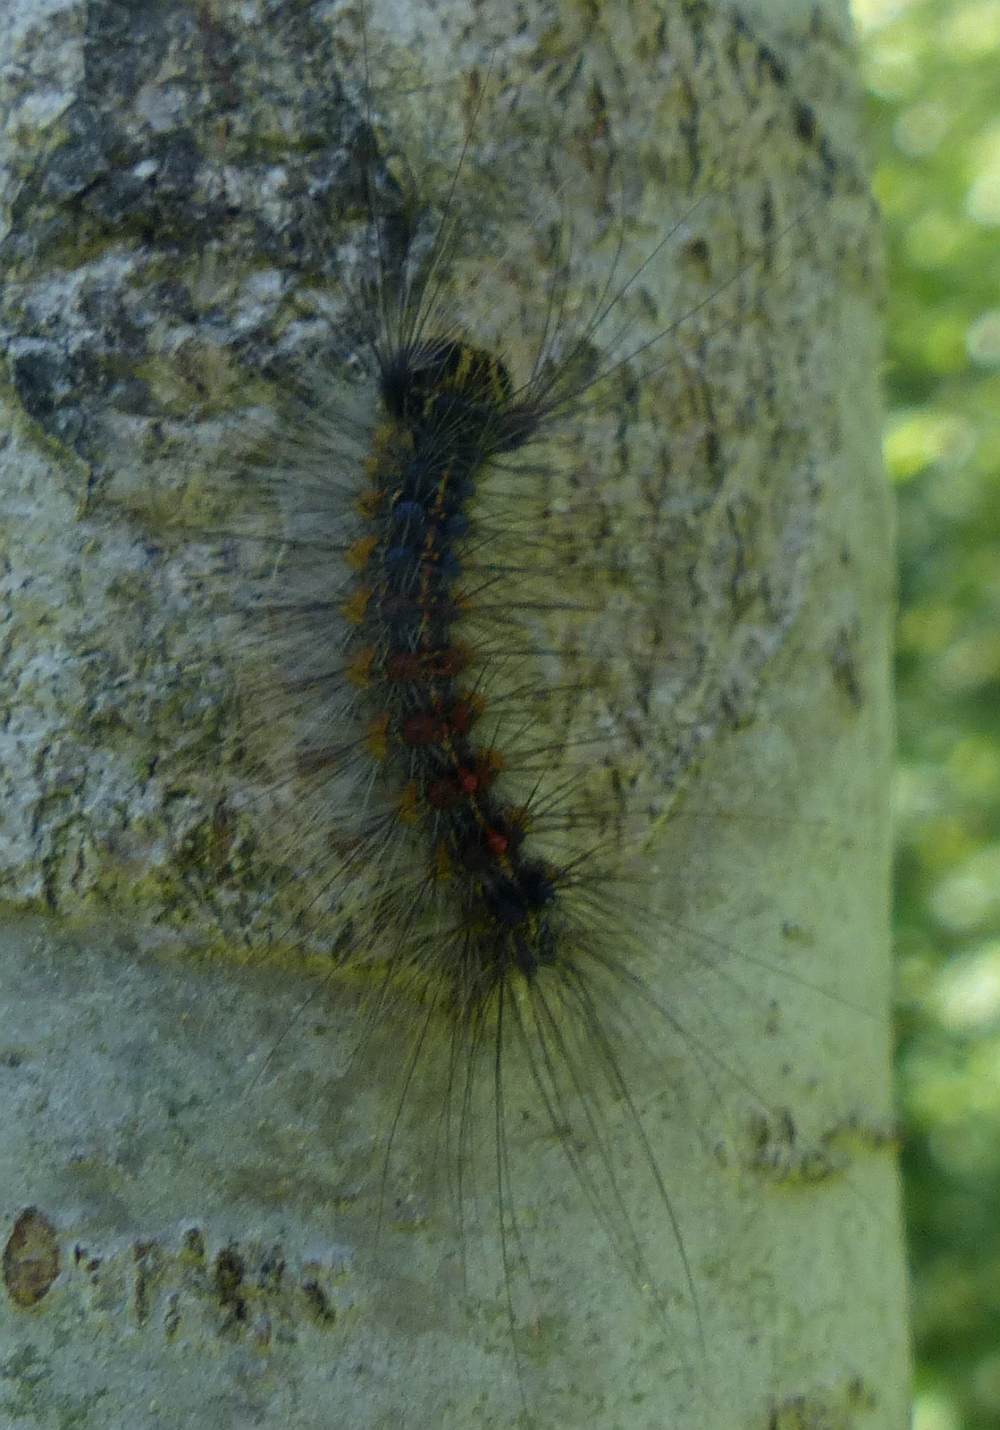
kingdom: Animalia
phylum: Arthropoda
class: Insecta
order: Lepidoptera
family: Erebidae
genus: Lymantria
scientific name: Lymantria dispar
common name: Gypsy moth
